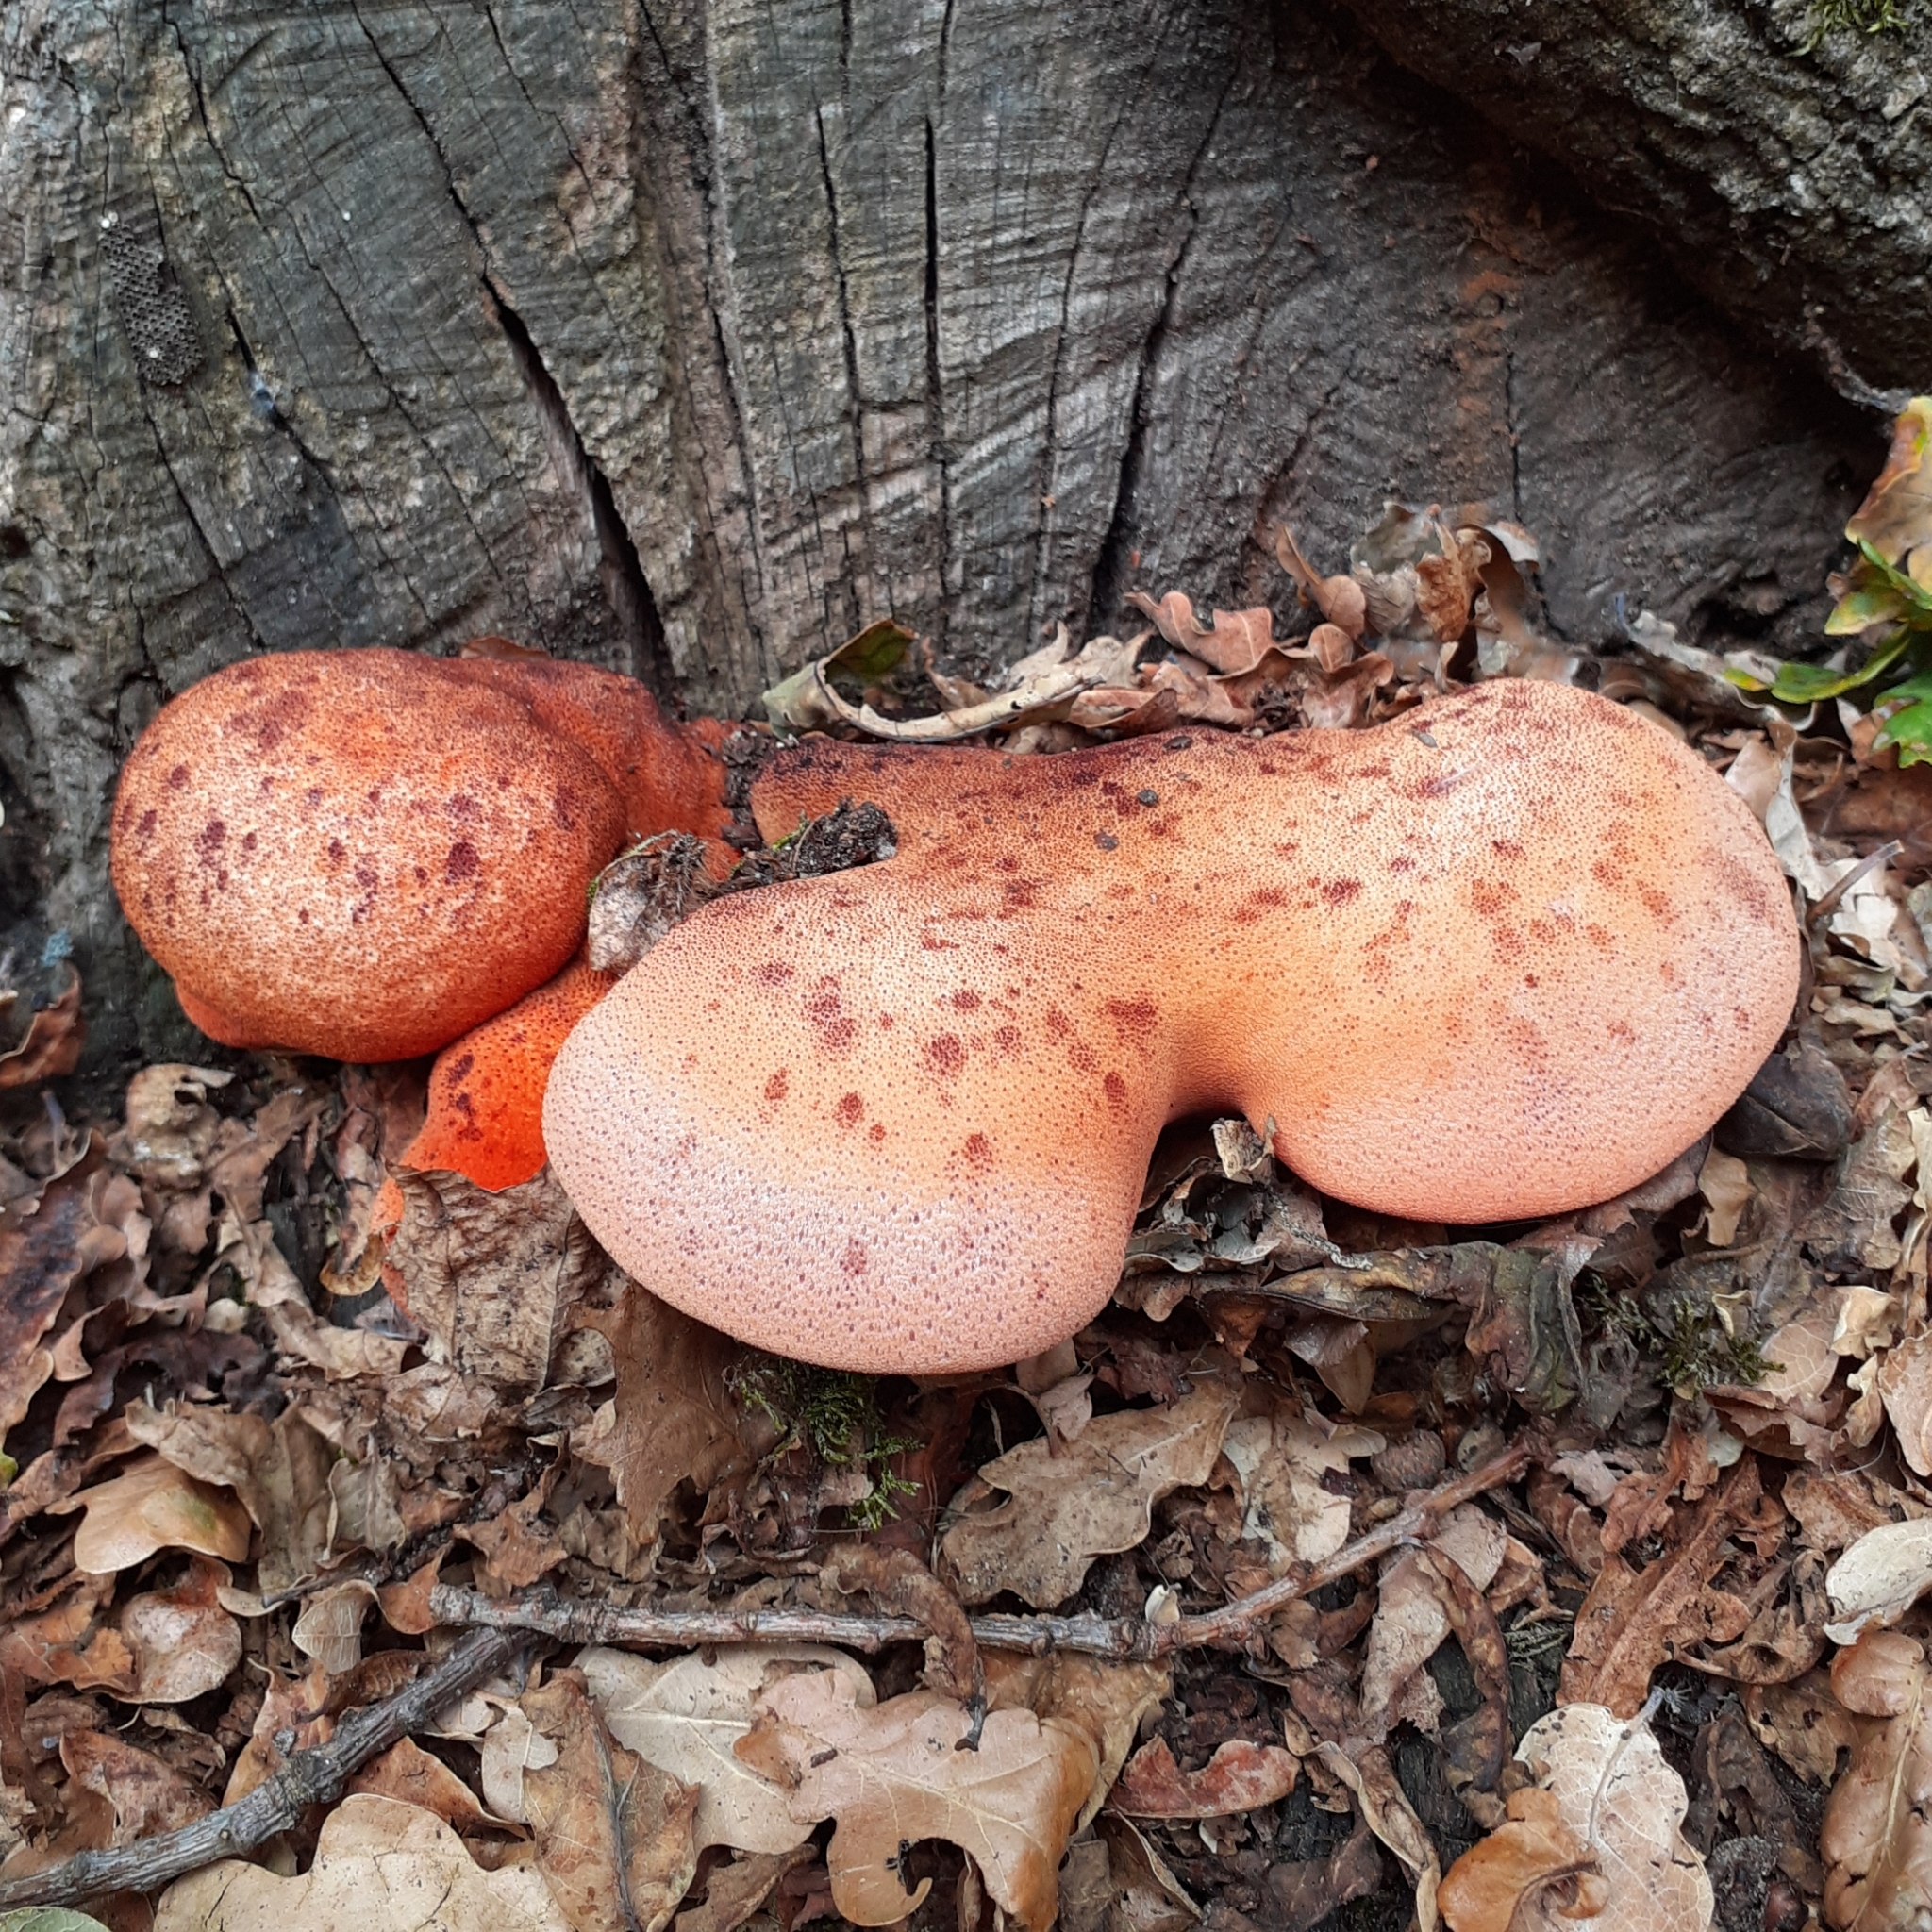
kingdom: Fungi
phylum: Basidiomycota
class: Agaricomycetes
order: Agaricales
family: Fistulinaceae
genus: Fistulina
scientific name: Fistulina hepatica
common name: Beef-steak fungus
